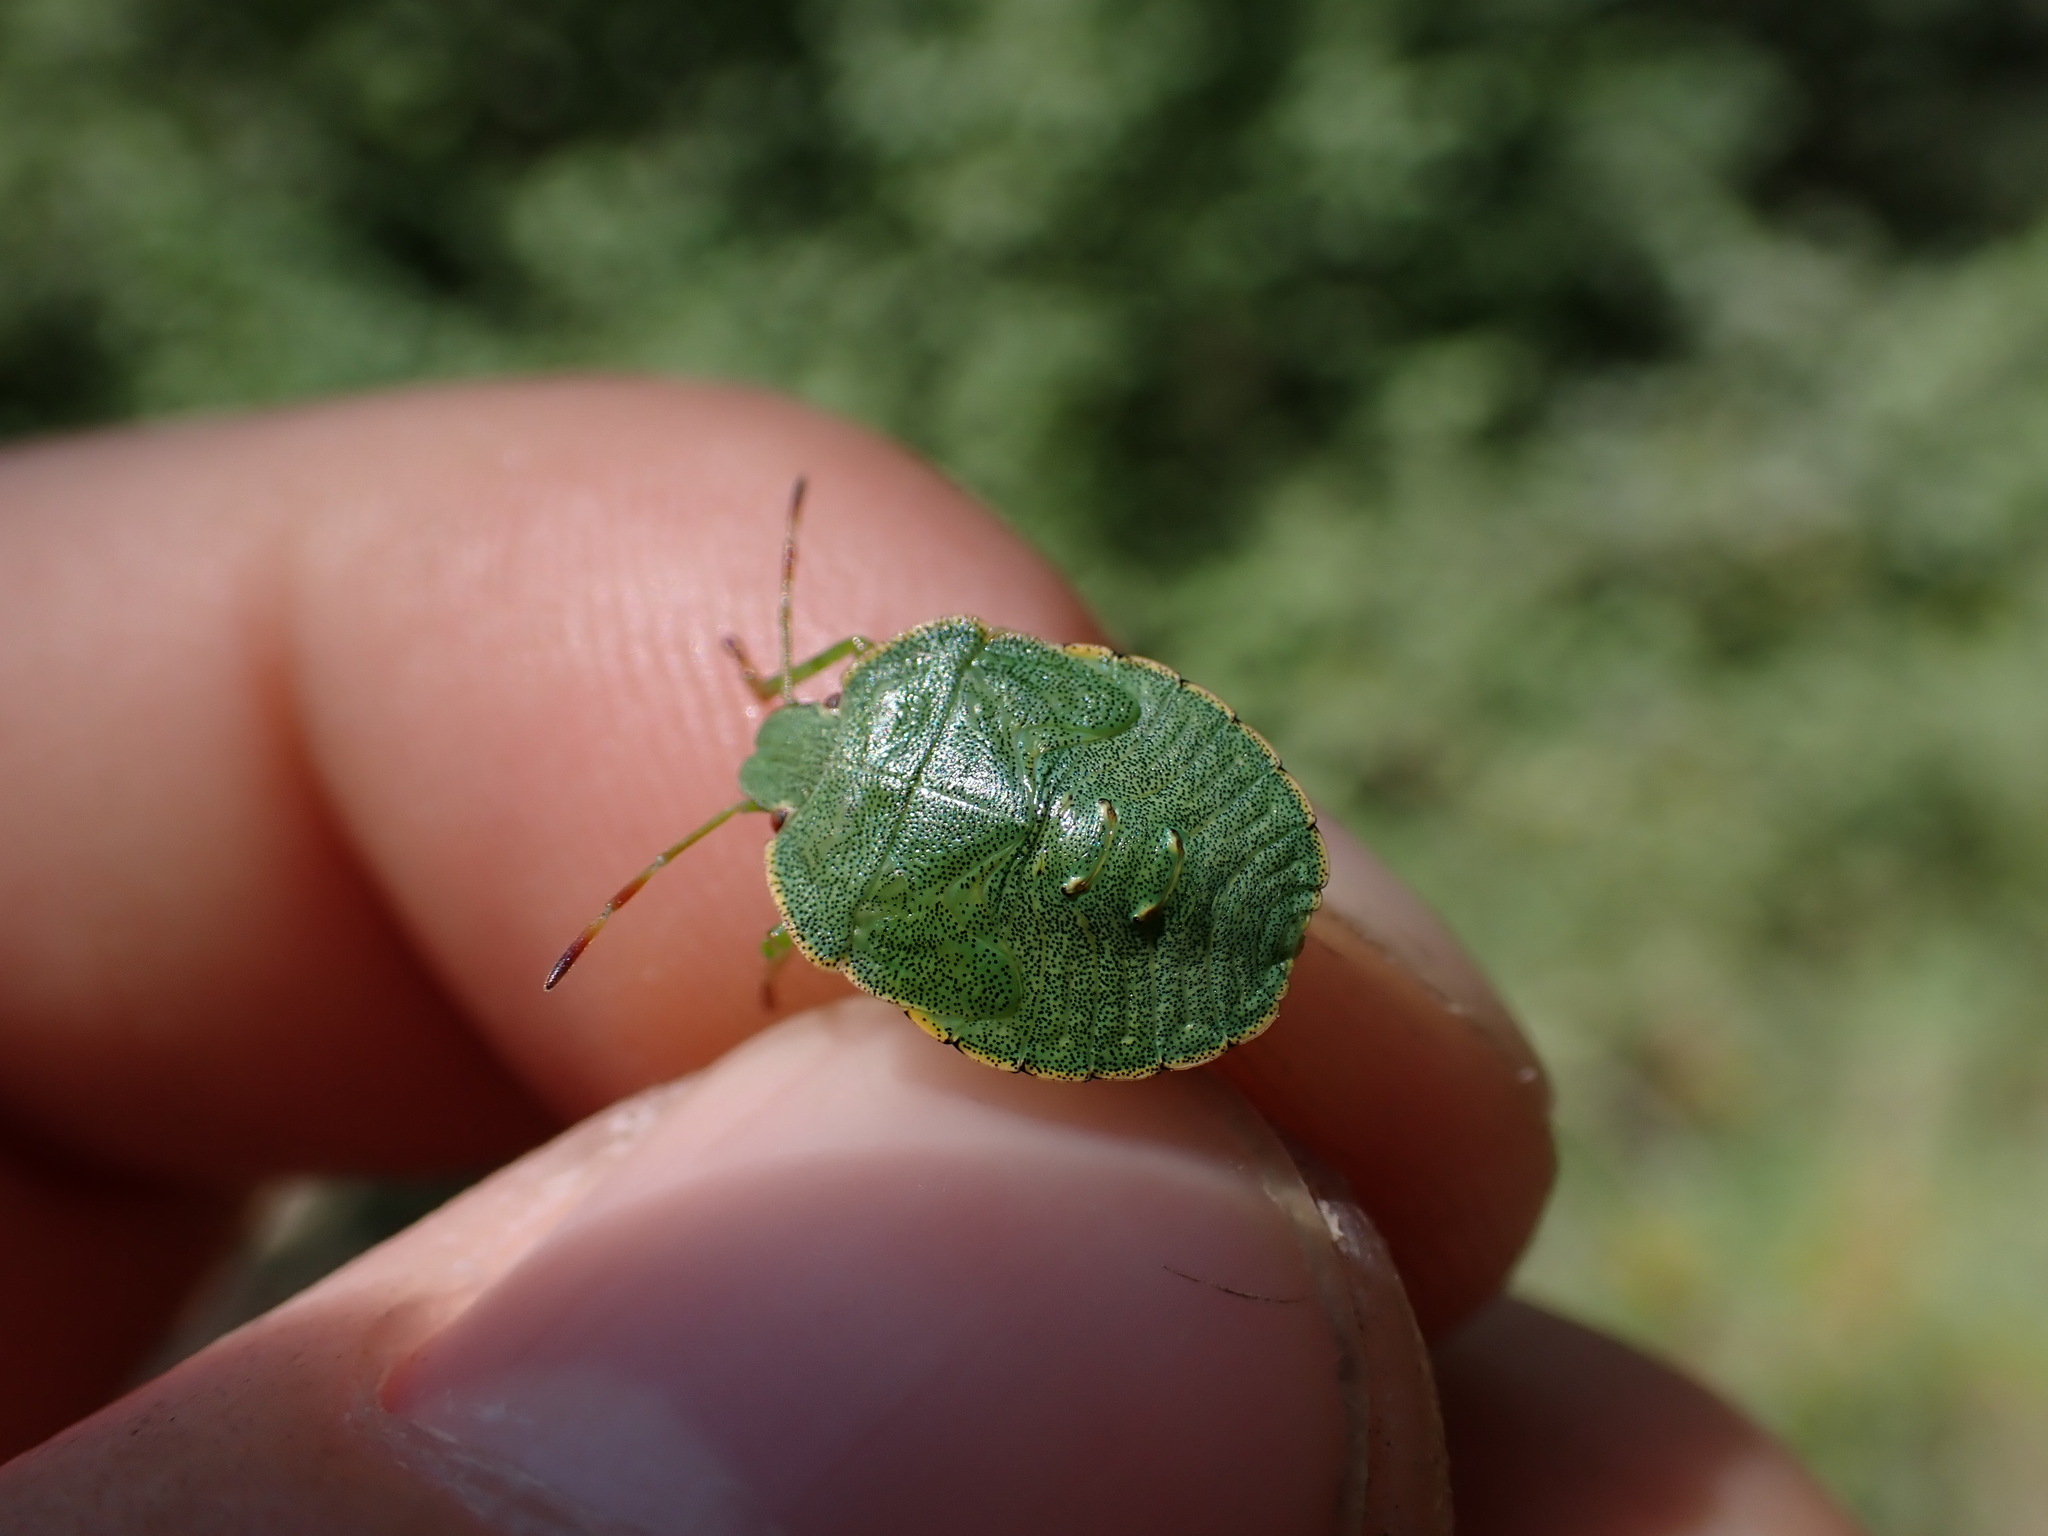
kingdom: Animalia
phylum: Arthropoda
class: Insecta
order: Hemiptera
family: Pentatomidae
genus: Palomena
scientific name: Palomena prasina
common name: Green shieldbug
